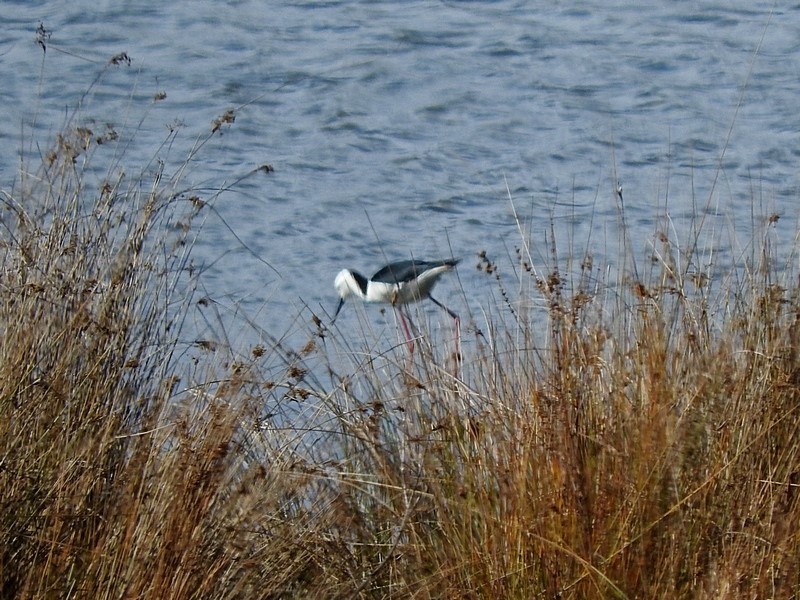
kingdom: Animalia
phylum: Chordata
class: Aves
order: Charadriiformes
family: Recurvirostridae
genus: Himantopus
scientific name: Himantopus leucocephalus
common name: White-headed stilt
